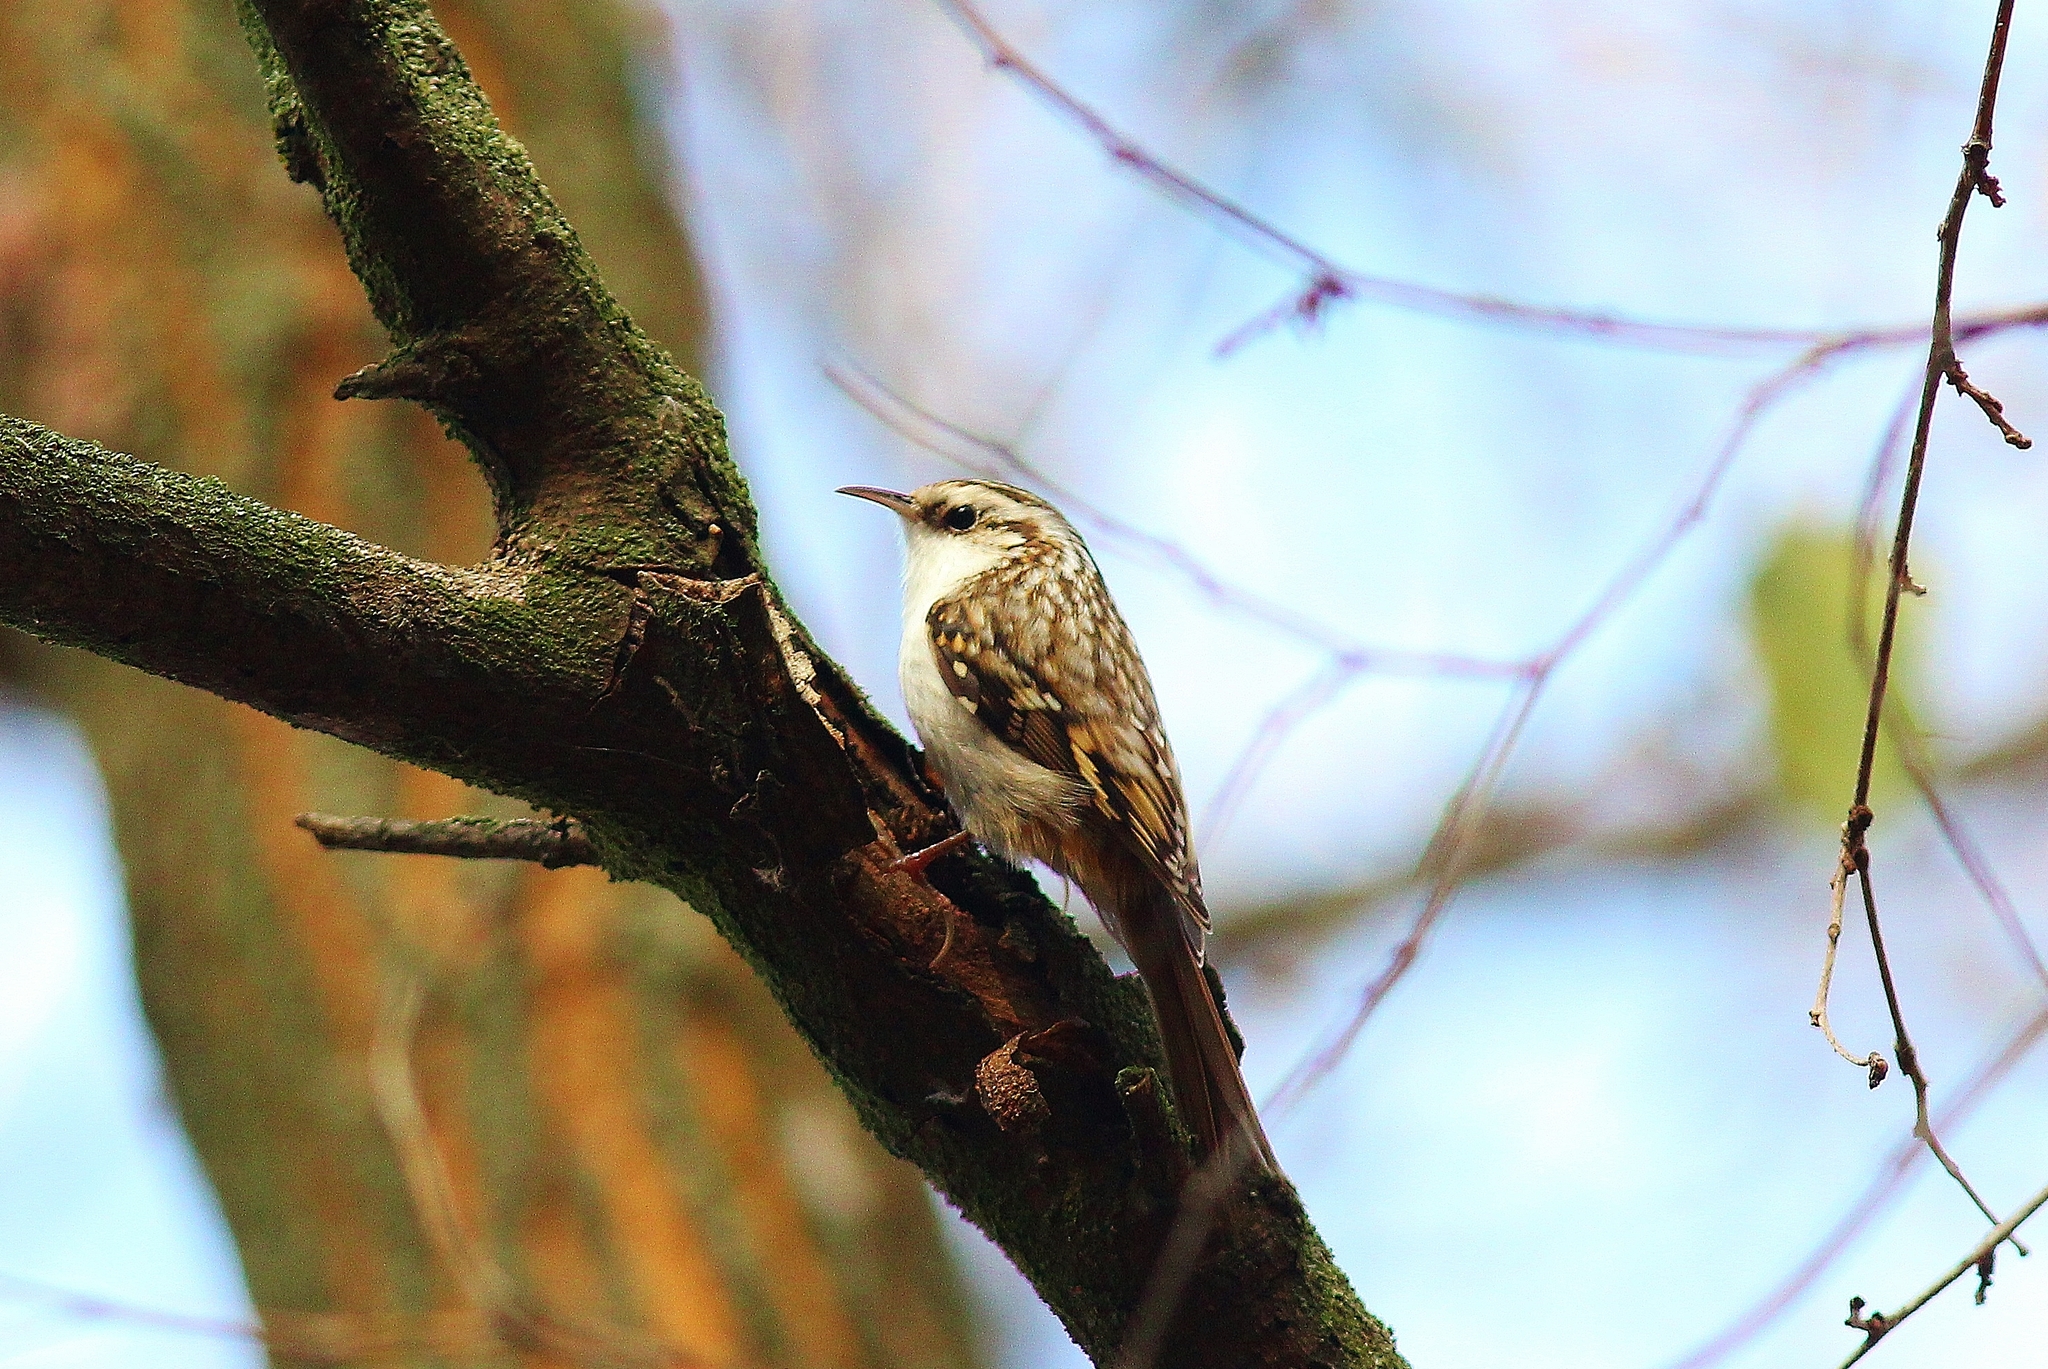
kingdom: Animalia
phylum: Chordata
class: Aves
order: Passeriformes
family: Certhiidae
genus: Certhia
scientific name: Certhia familiaris
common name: Eurasian treecreeper
